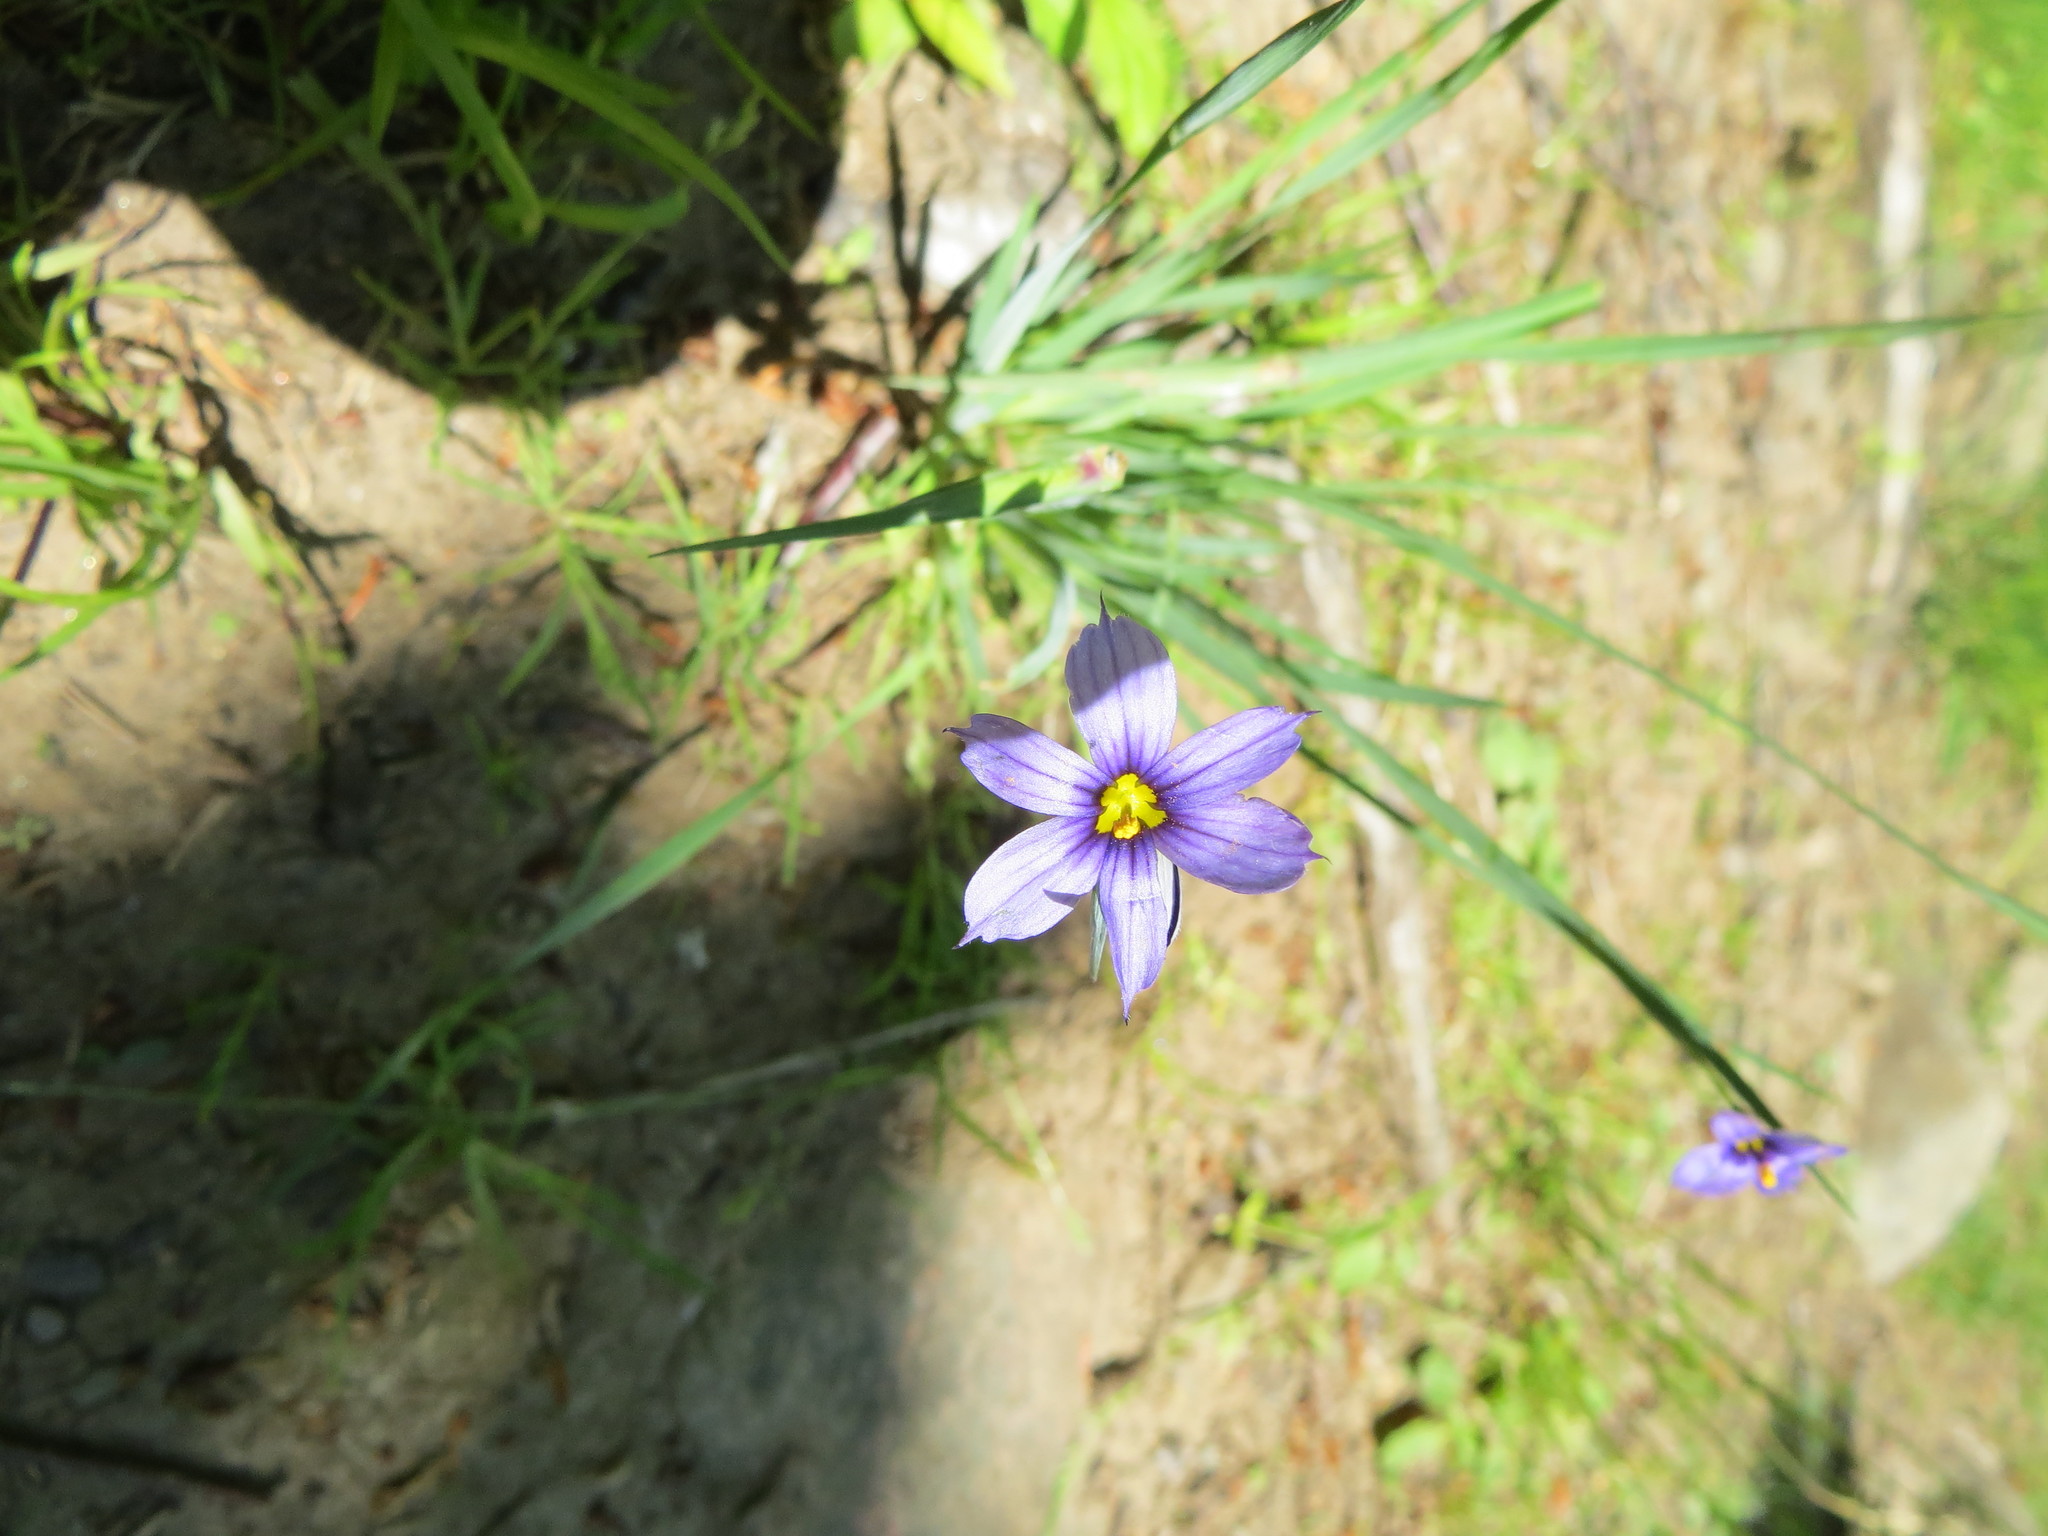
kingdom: Plantae
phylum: Tracheophyta
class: Liliopsida
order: Asparagales
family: Iridaceae
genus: Sisyrinchium
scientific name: Sisyrinchium montanum
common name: American blue-eyed-grass
